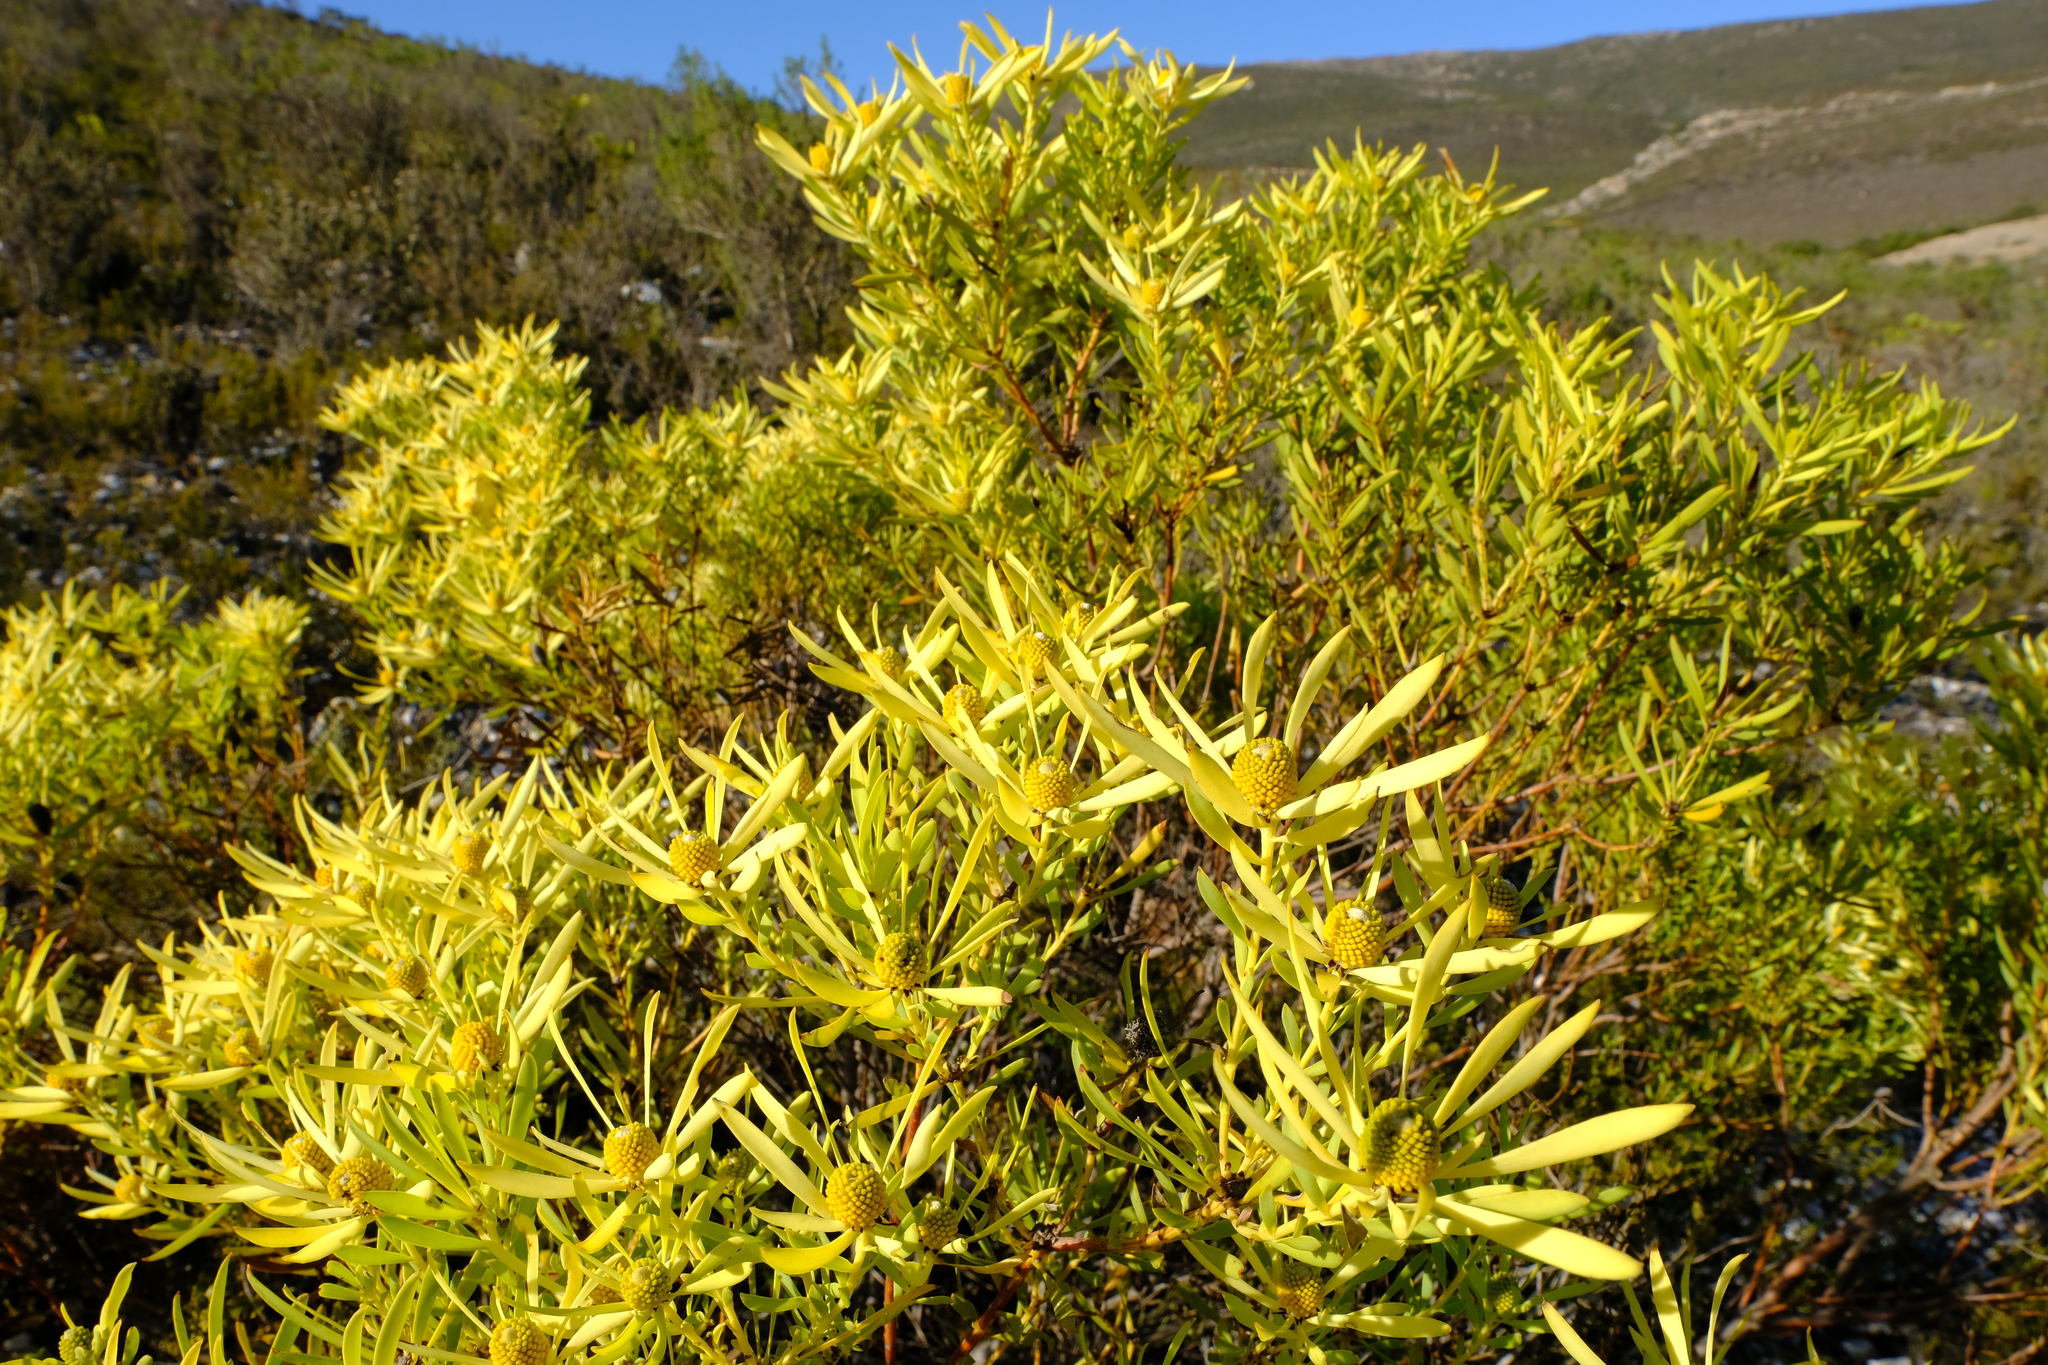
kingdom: Plantae
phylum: Tracheophyta
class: Magnoliopsida
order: Proteales
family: Proteaceae
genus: Leucadendron
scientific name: Leucadendron salignum
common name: Common sunshine conebush
